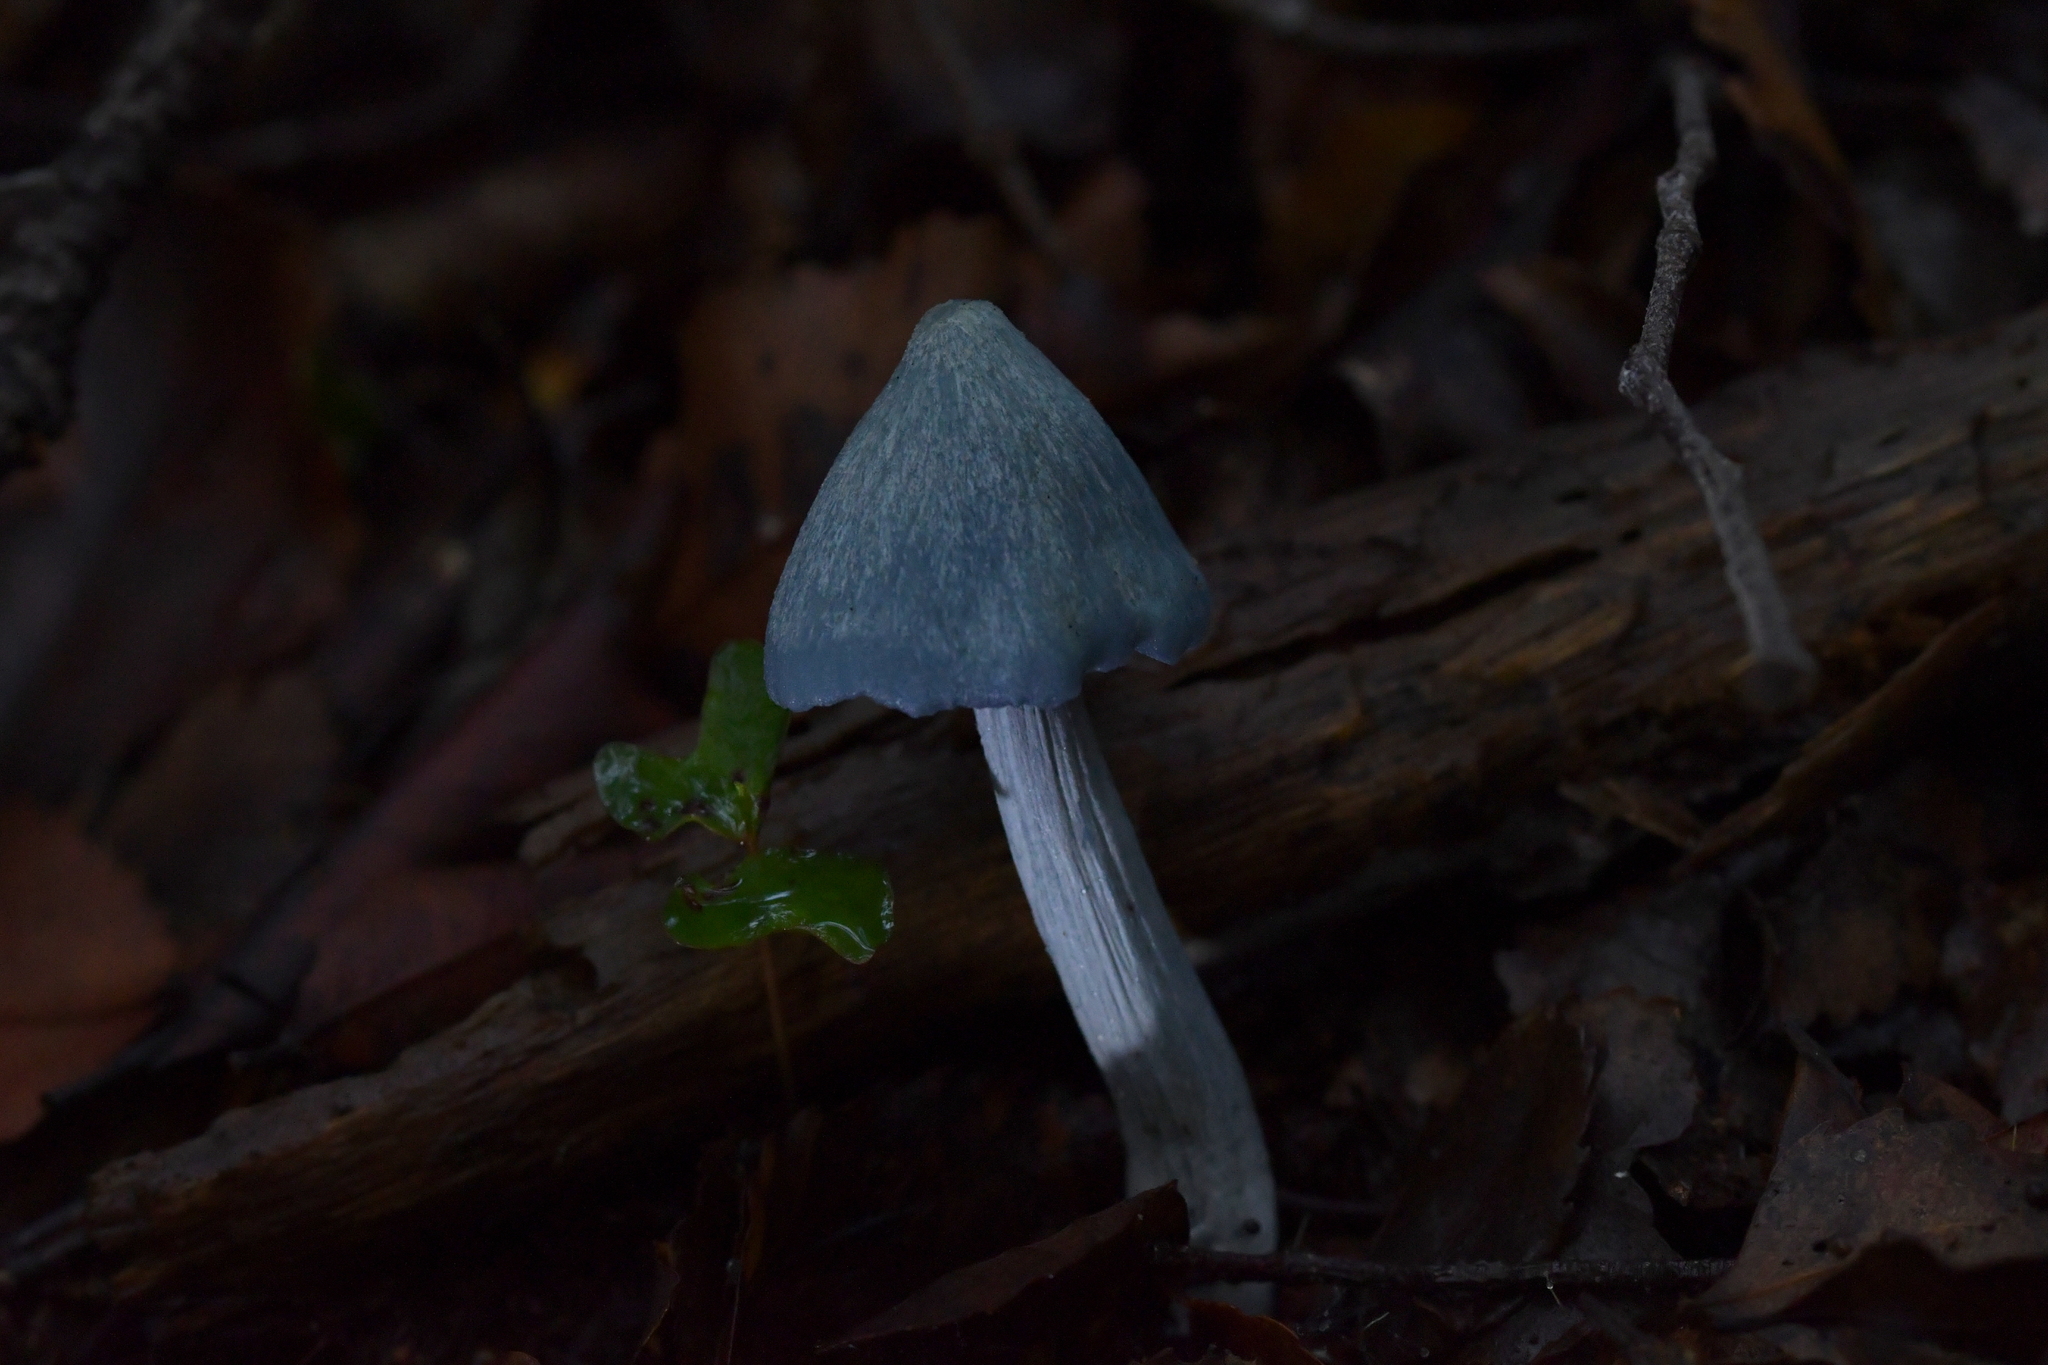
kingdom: Fungi
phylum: Basidiomycota
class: Agaricomycetes
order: Agaricales
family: Entolomataceae
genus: Entoloma
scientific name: Entoloma hochstetteri
